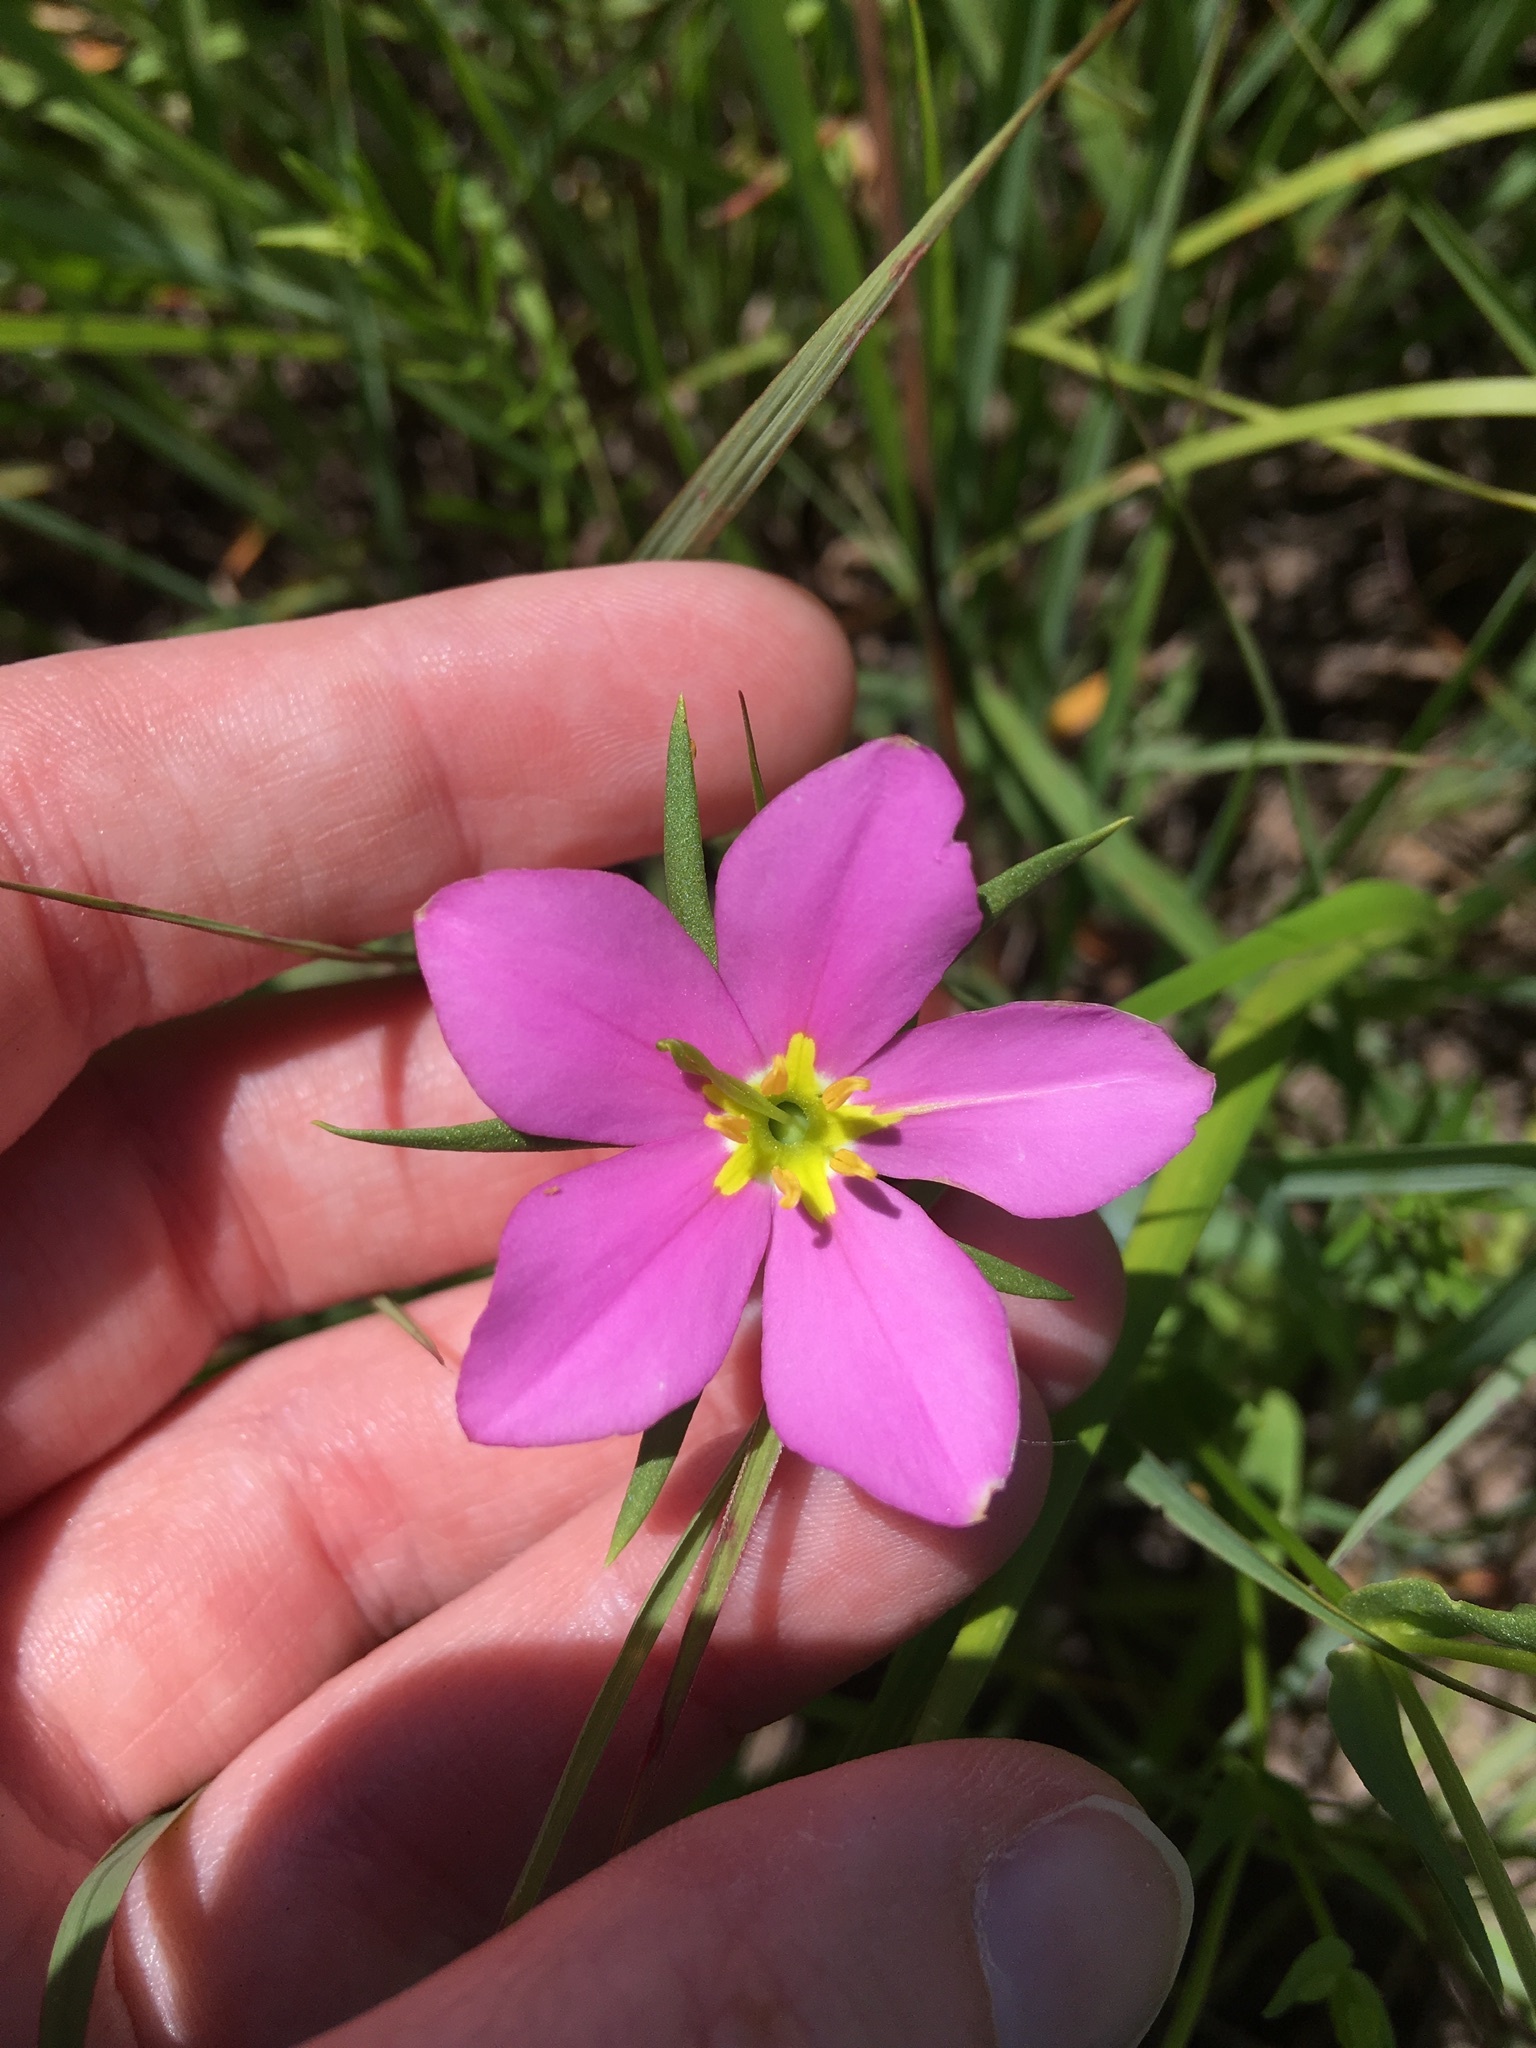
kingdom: Plantae
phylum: Tracheophyta
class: Magnoliopsida
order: Gentianales
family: Gentianaceae
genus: Sabatia
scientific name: Sabatia campestris
